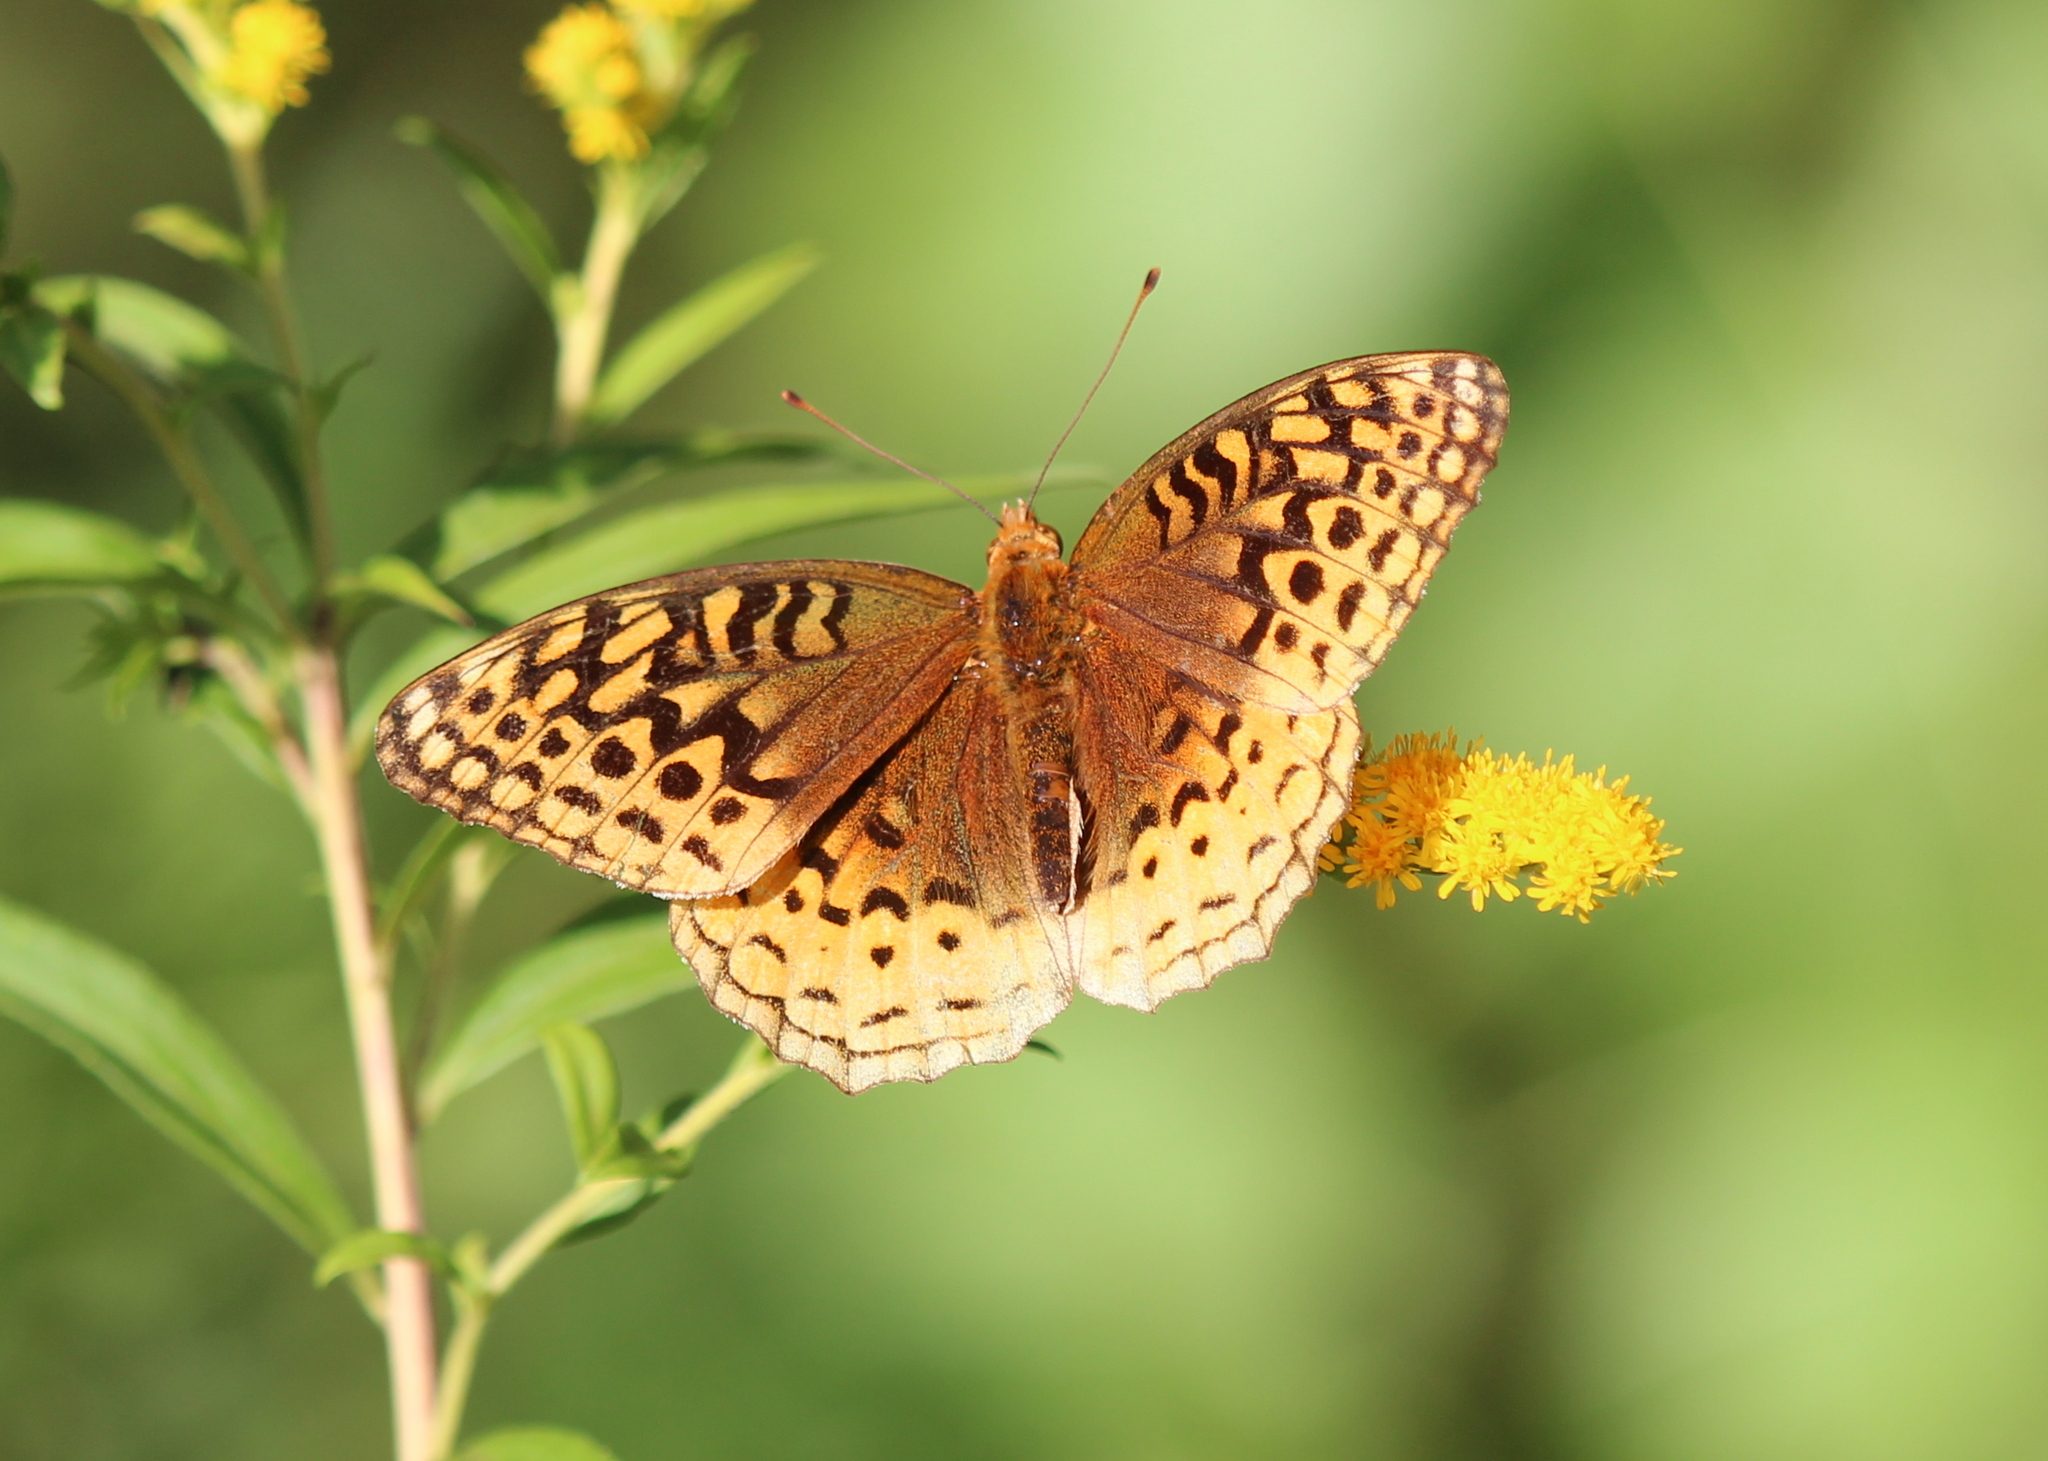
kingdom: Animalia
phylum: Arthropoda
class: Insecta
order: Lepidoptera
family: Nymphalidae
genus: Speyeria
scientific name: Speyeria cybele
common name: Great spangled fritillary
